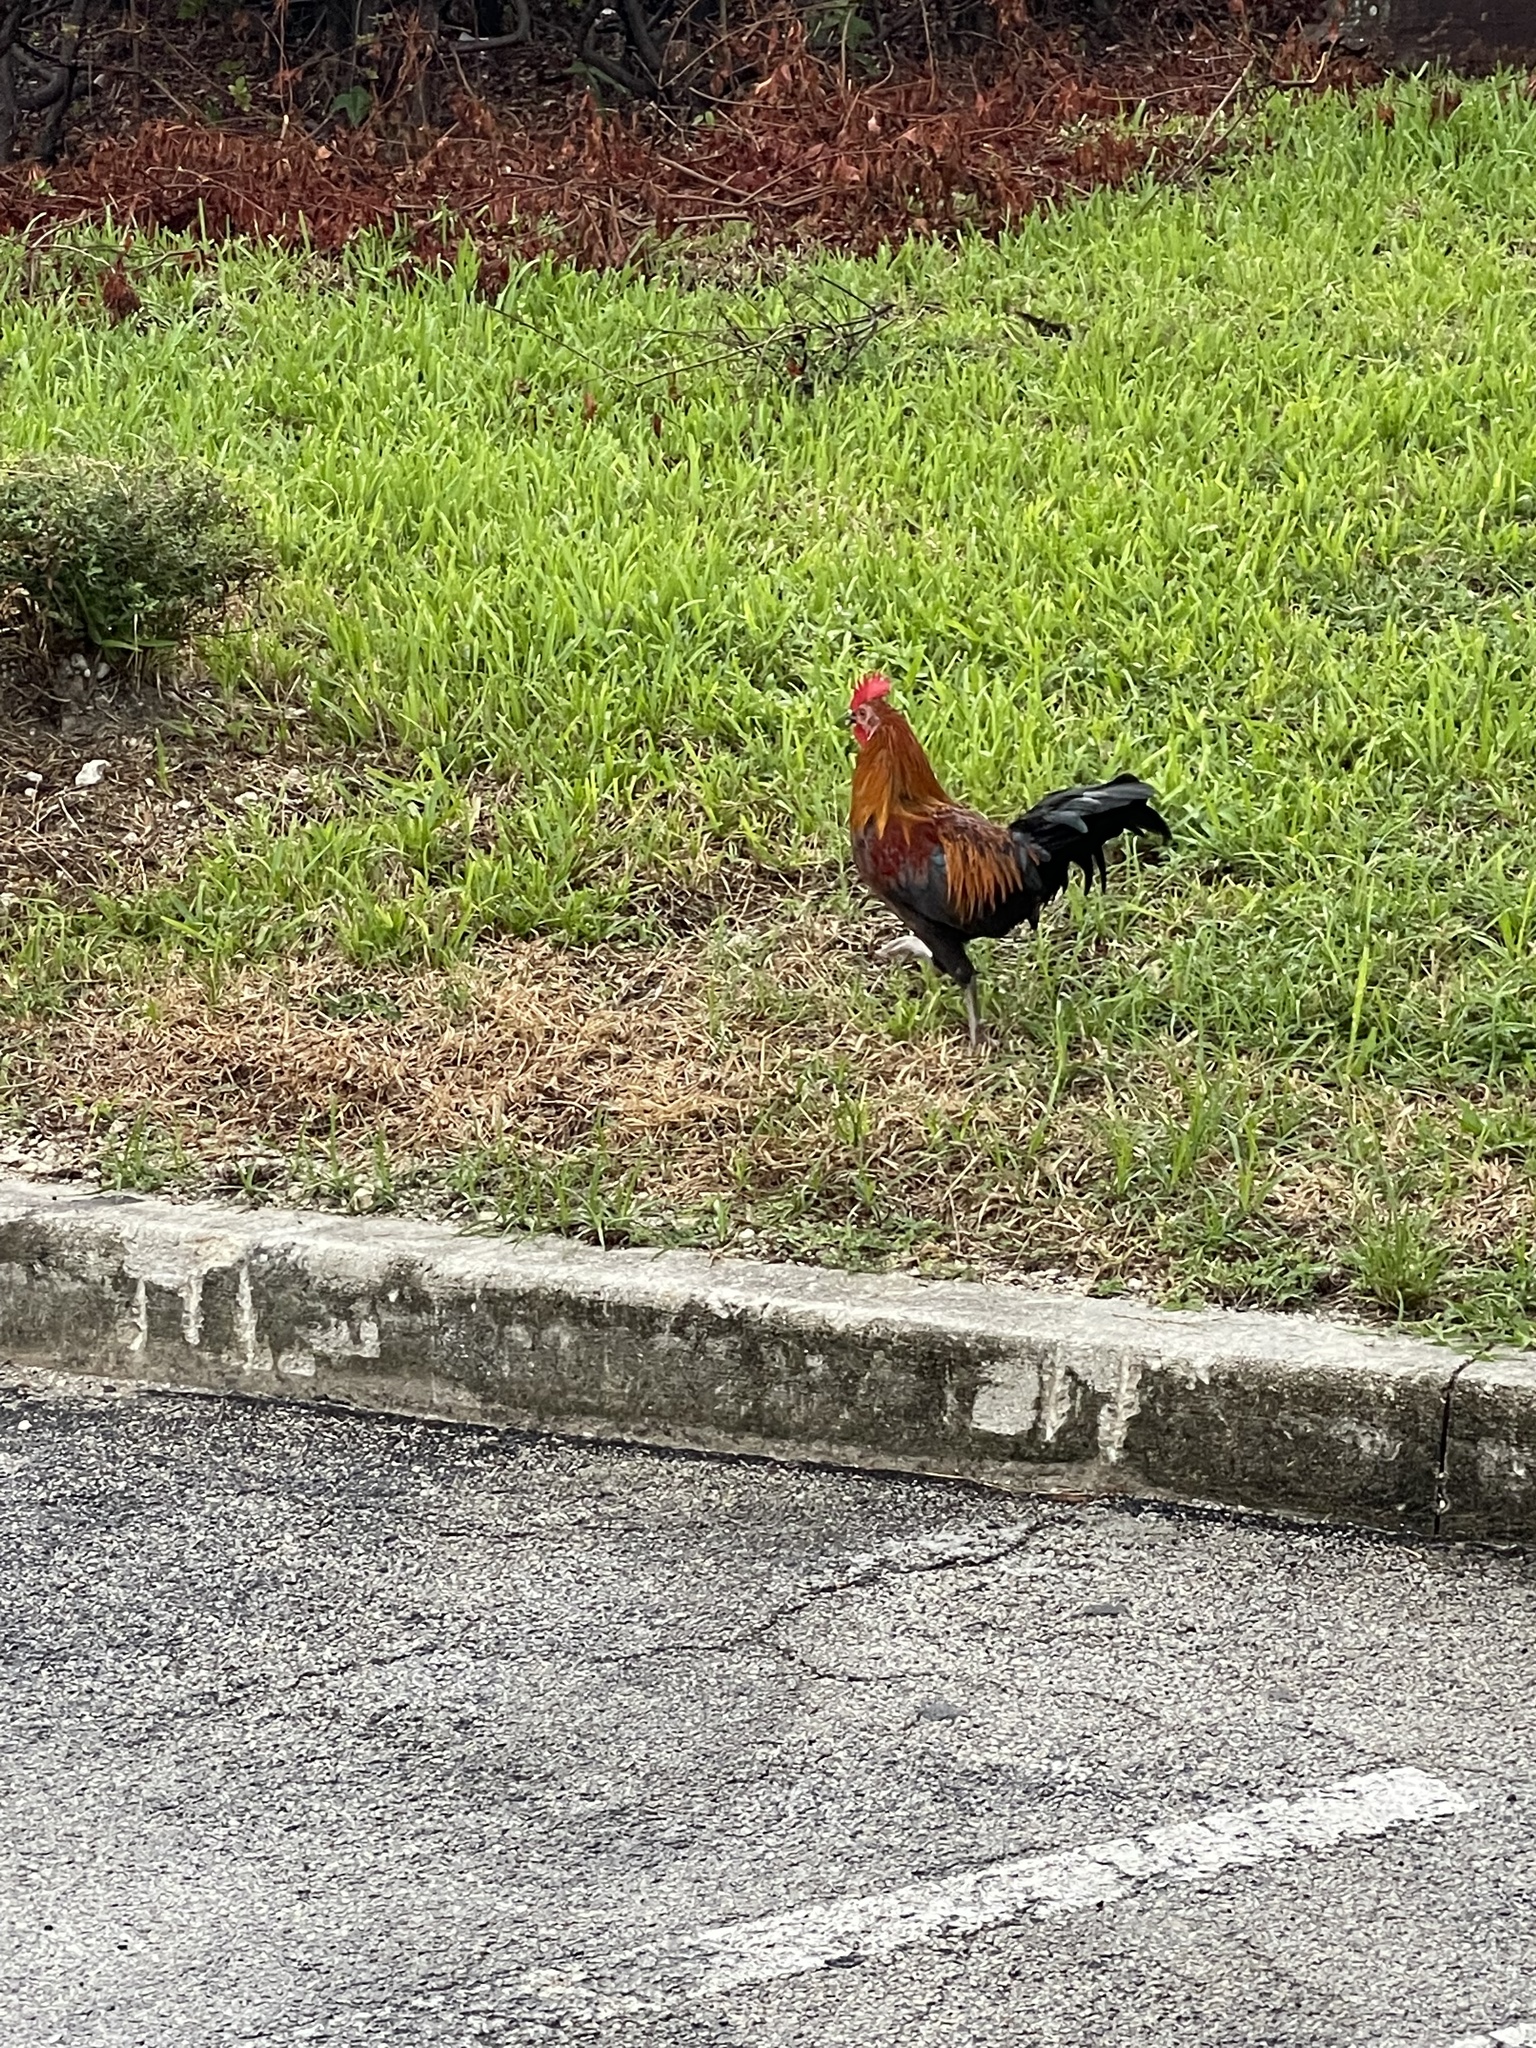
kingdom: Animalia
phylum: Chordata
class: Aves
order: Galliformes
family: Phasianidae
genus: Gallus
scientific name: Gallus gallus
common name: Red junglefowl
